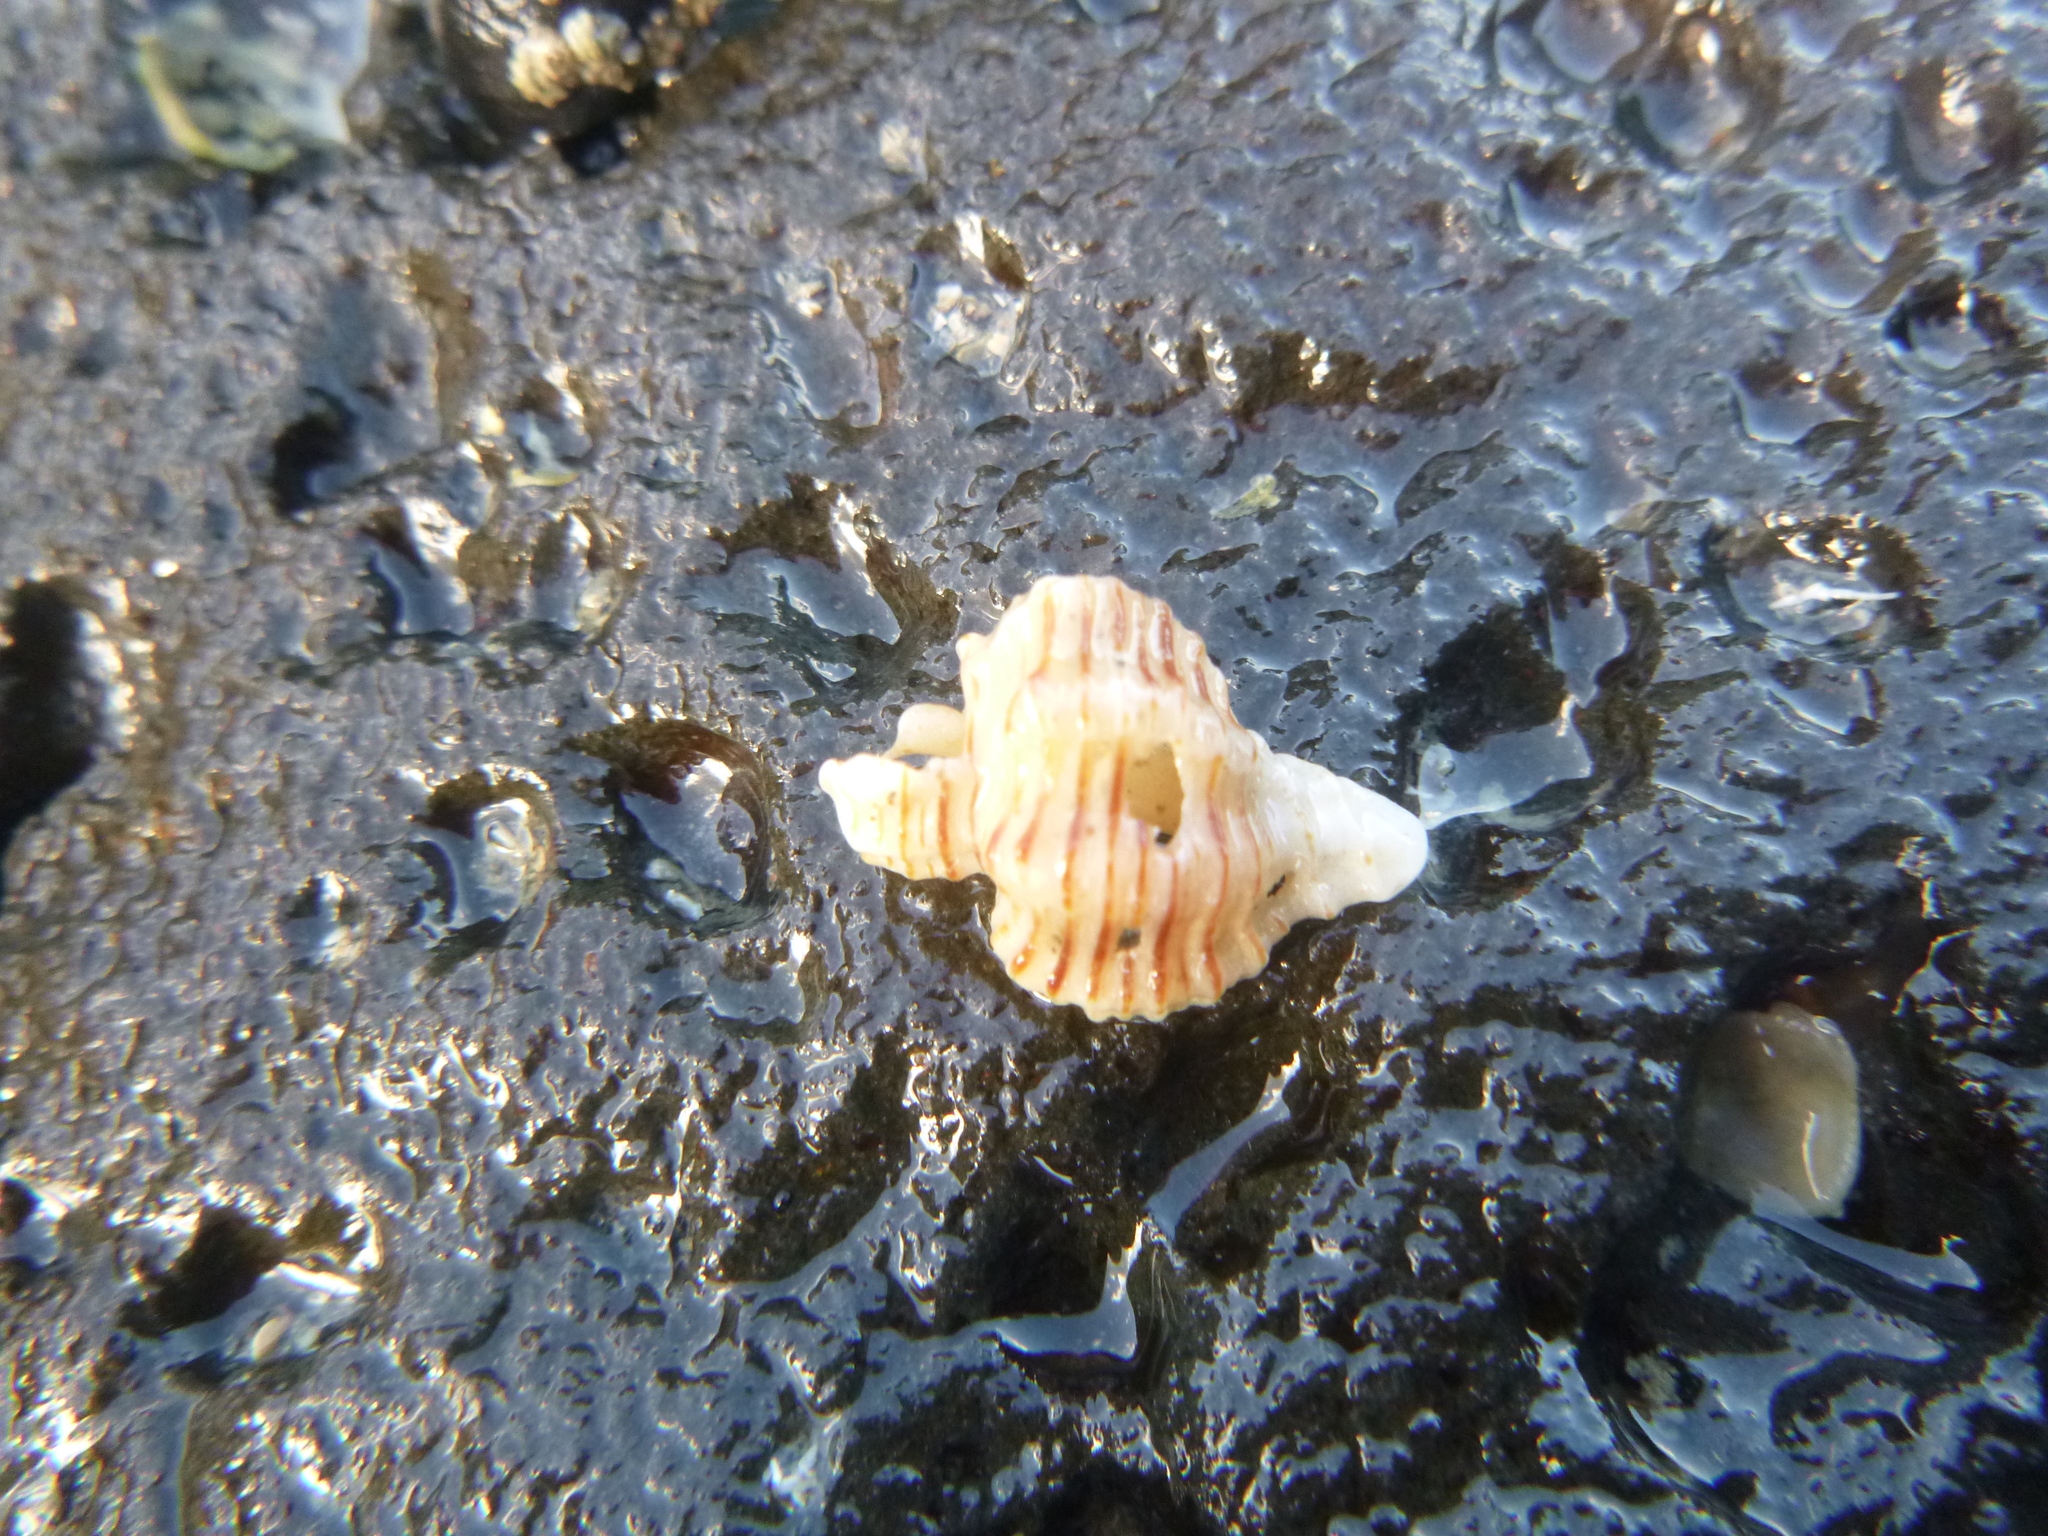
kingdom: Animalia
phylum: Mollusca
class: Gastropoda
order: Neogastropoda
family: Muricidae
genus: Murexsul
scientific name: Murexsul mariae
